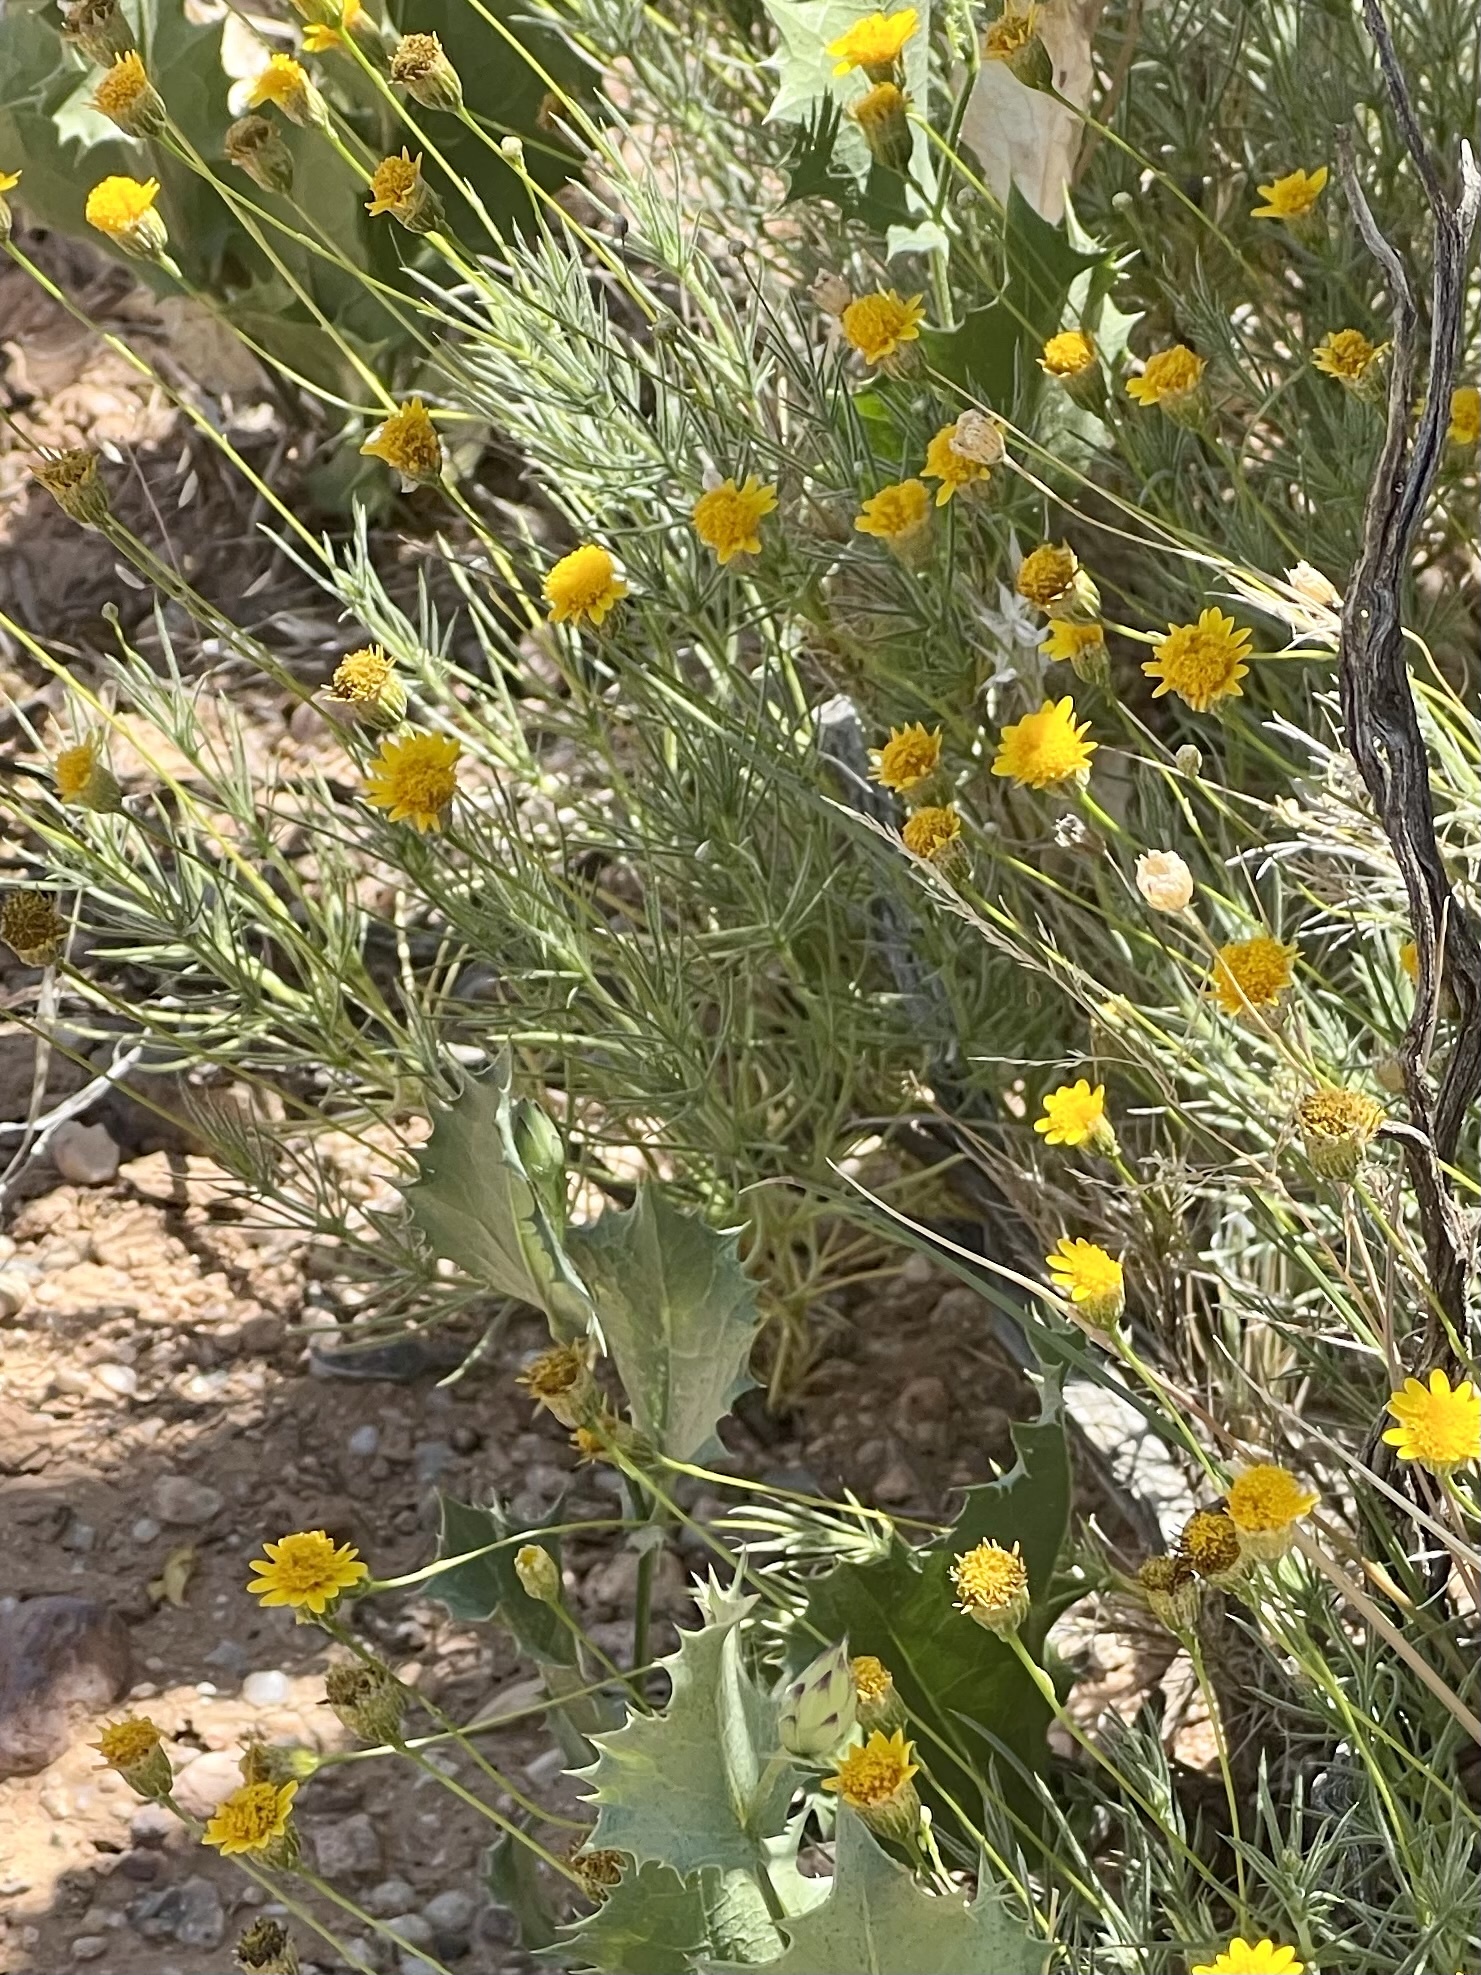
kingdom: Plantae
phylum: Tracheophyta
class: Magnoliopsida
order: Asterales
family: Asteraceae
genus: Thymophylla
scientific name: Thymophylla pentachaeta
